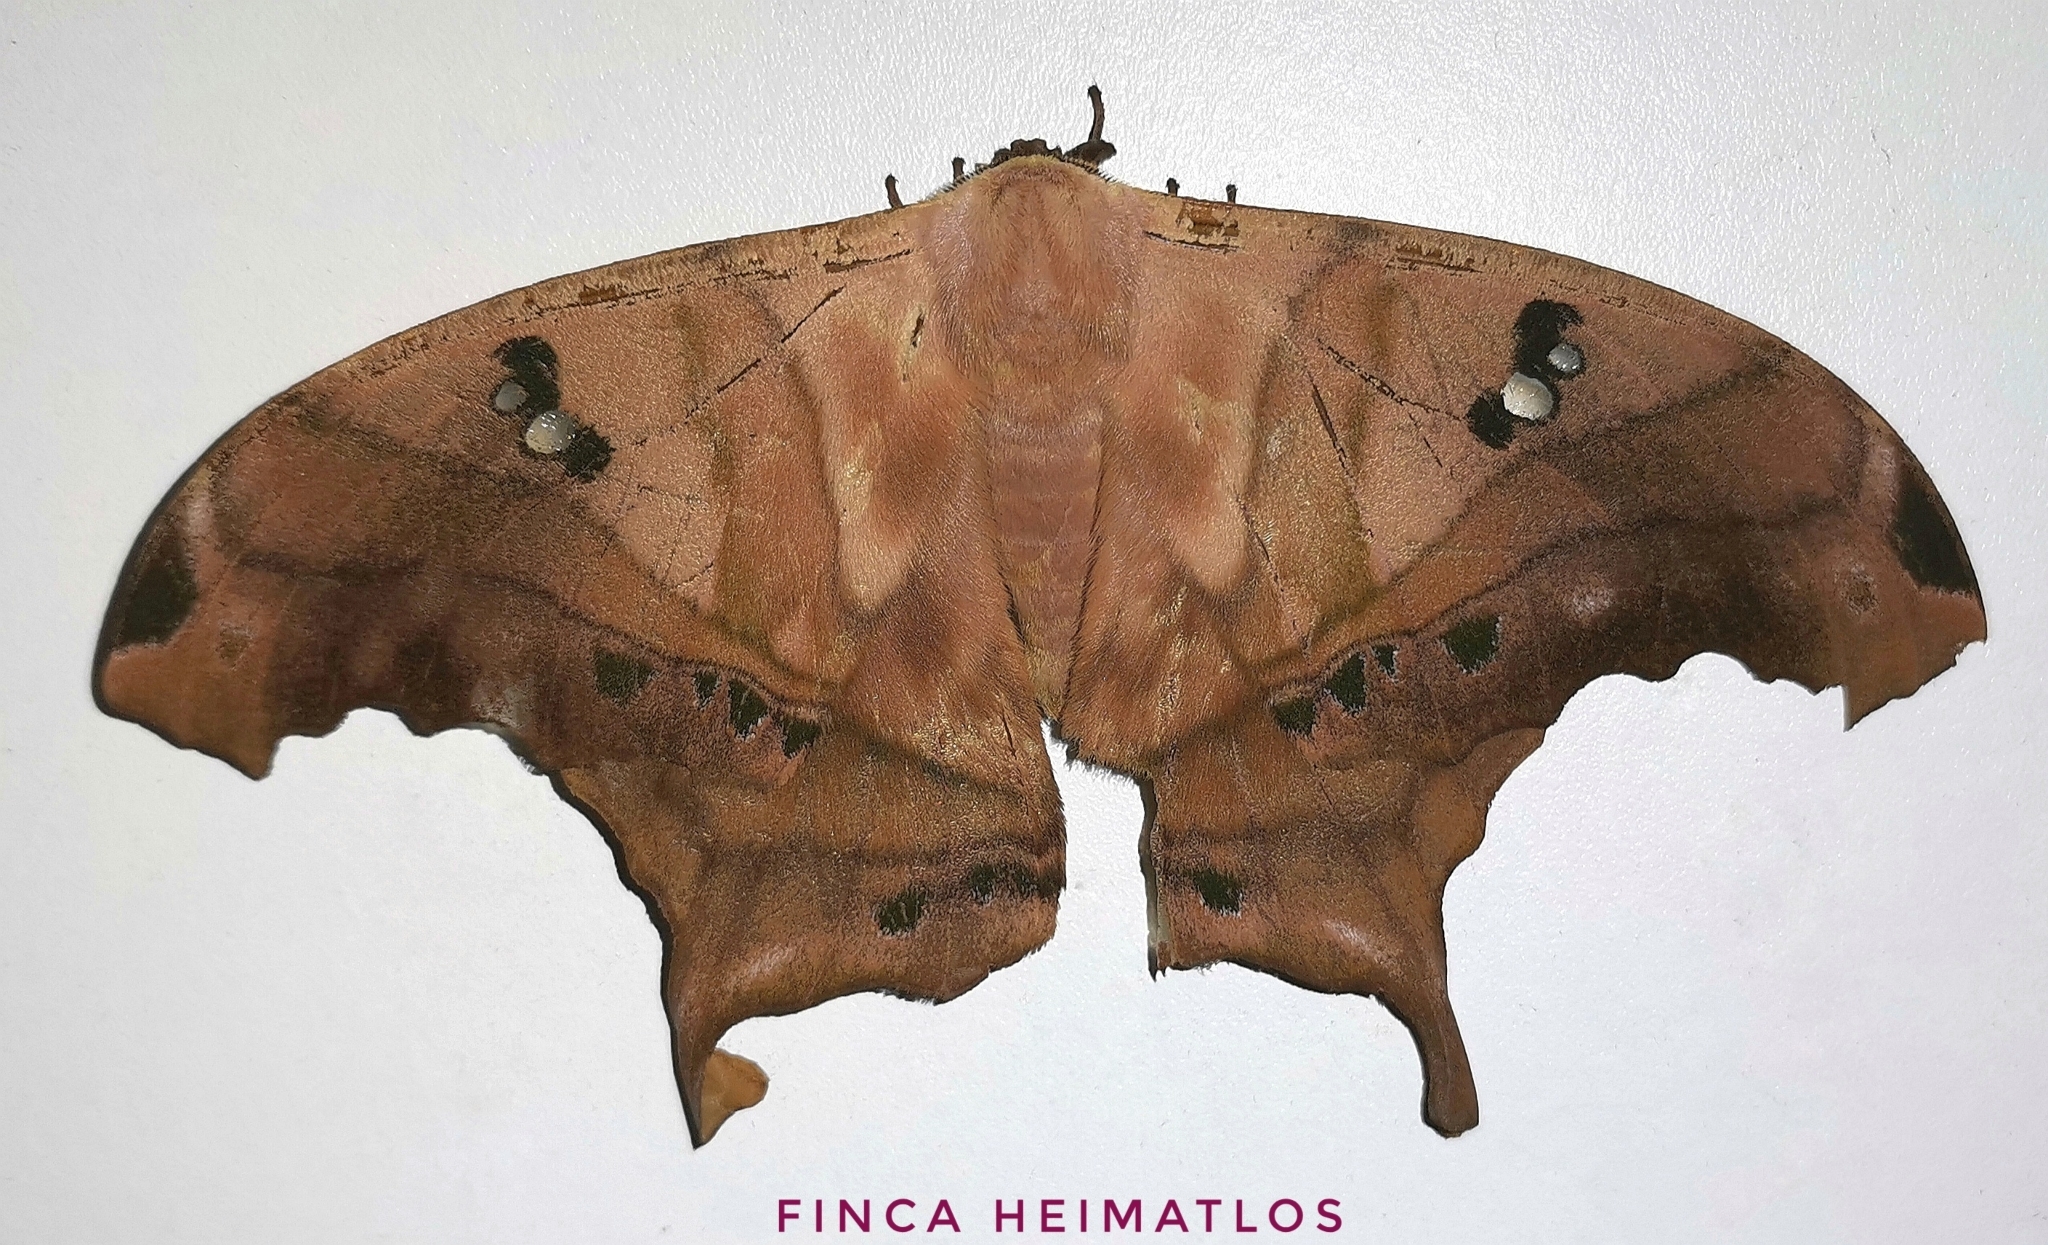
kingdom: Animalia
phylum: Arthropoda
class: Insecta
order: Lepidoptera
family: Saturniidae
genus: Titaea
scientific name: Titaea tamerlan
